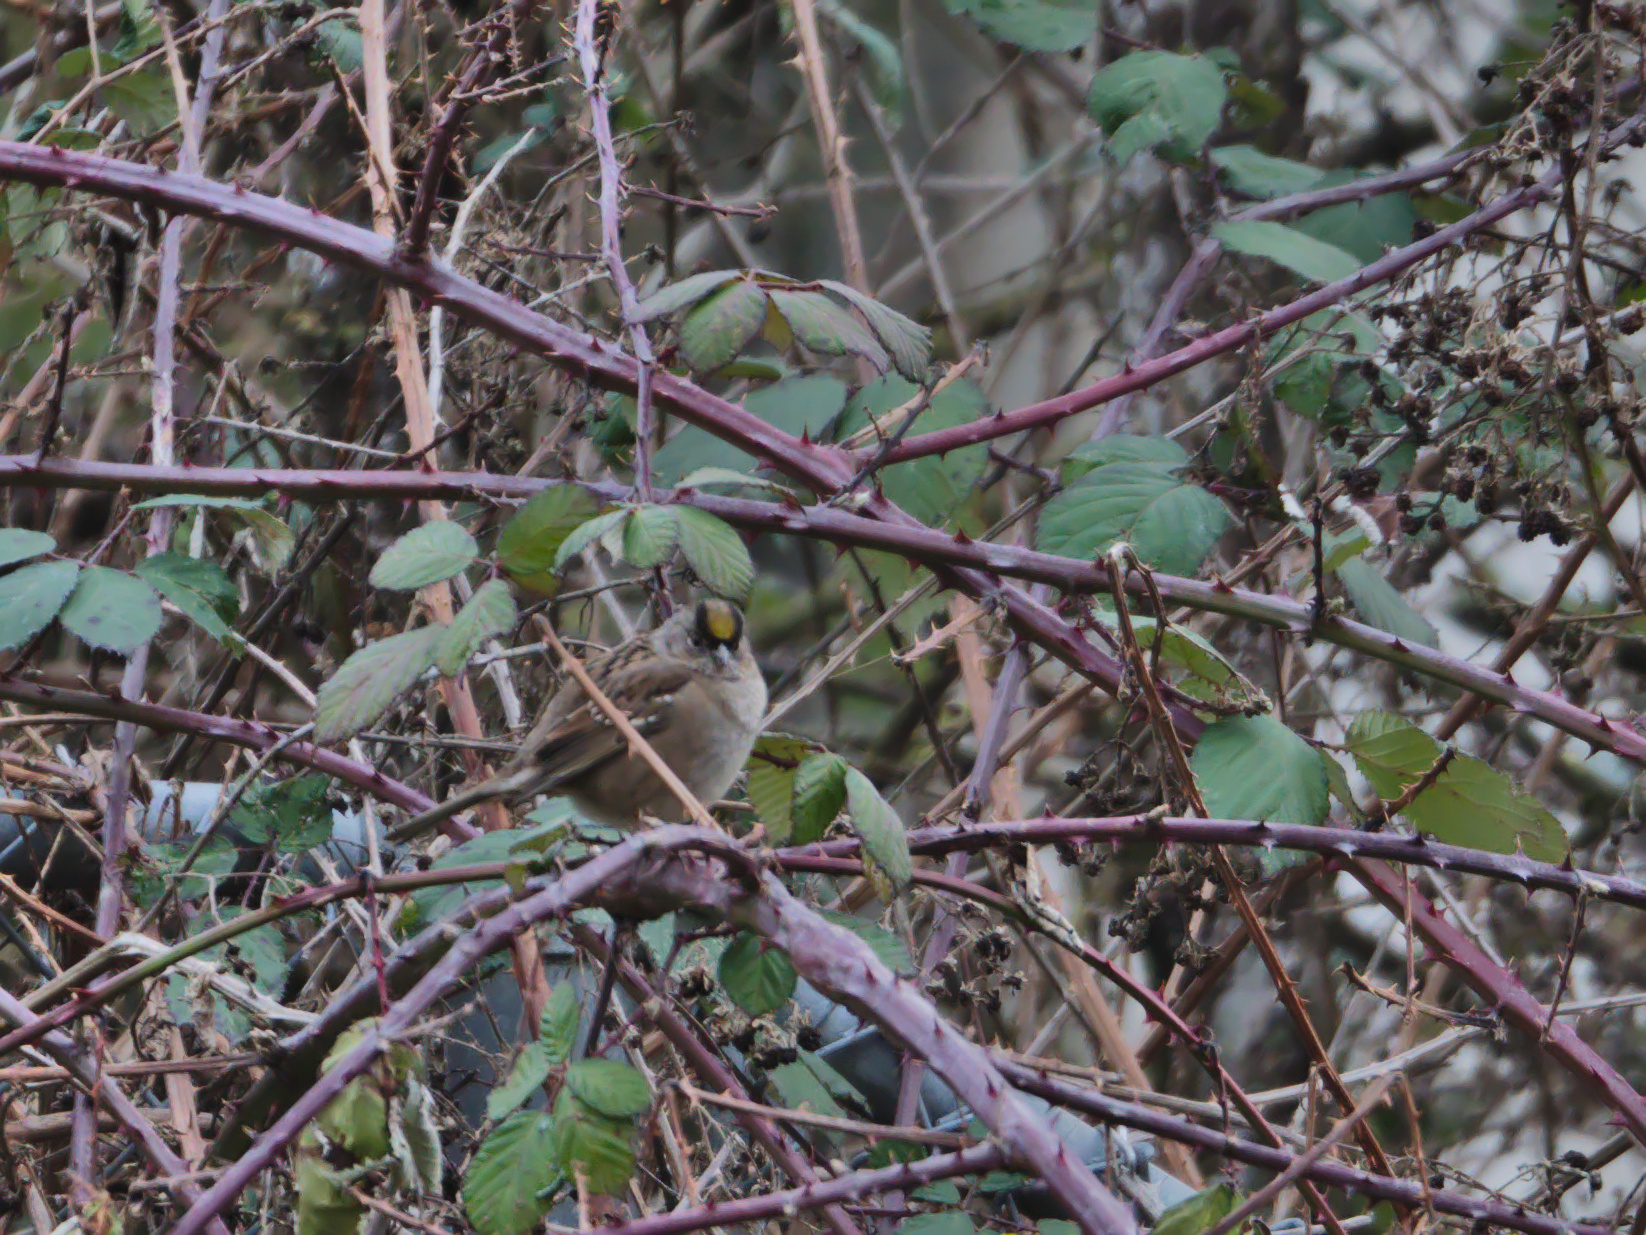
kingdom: Animalia
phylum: Chordata
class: Aves
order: Passeriformes
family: Passerellidae
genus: Zonotrichia
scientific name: Zonotrichia atricapilla
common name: Golden-crowned sparrow
